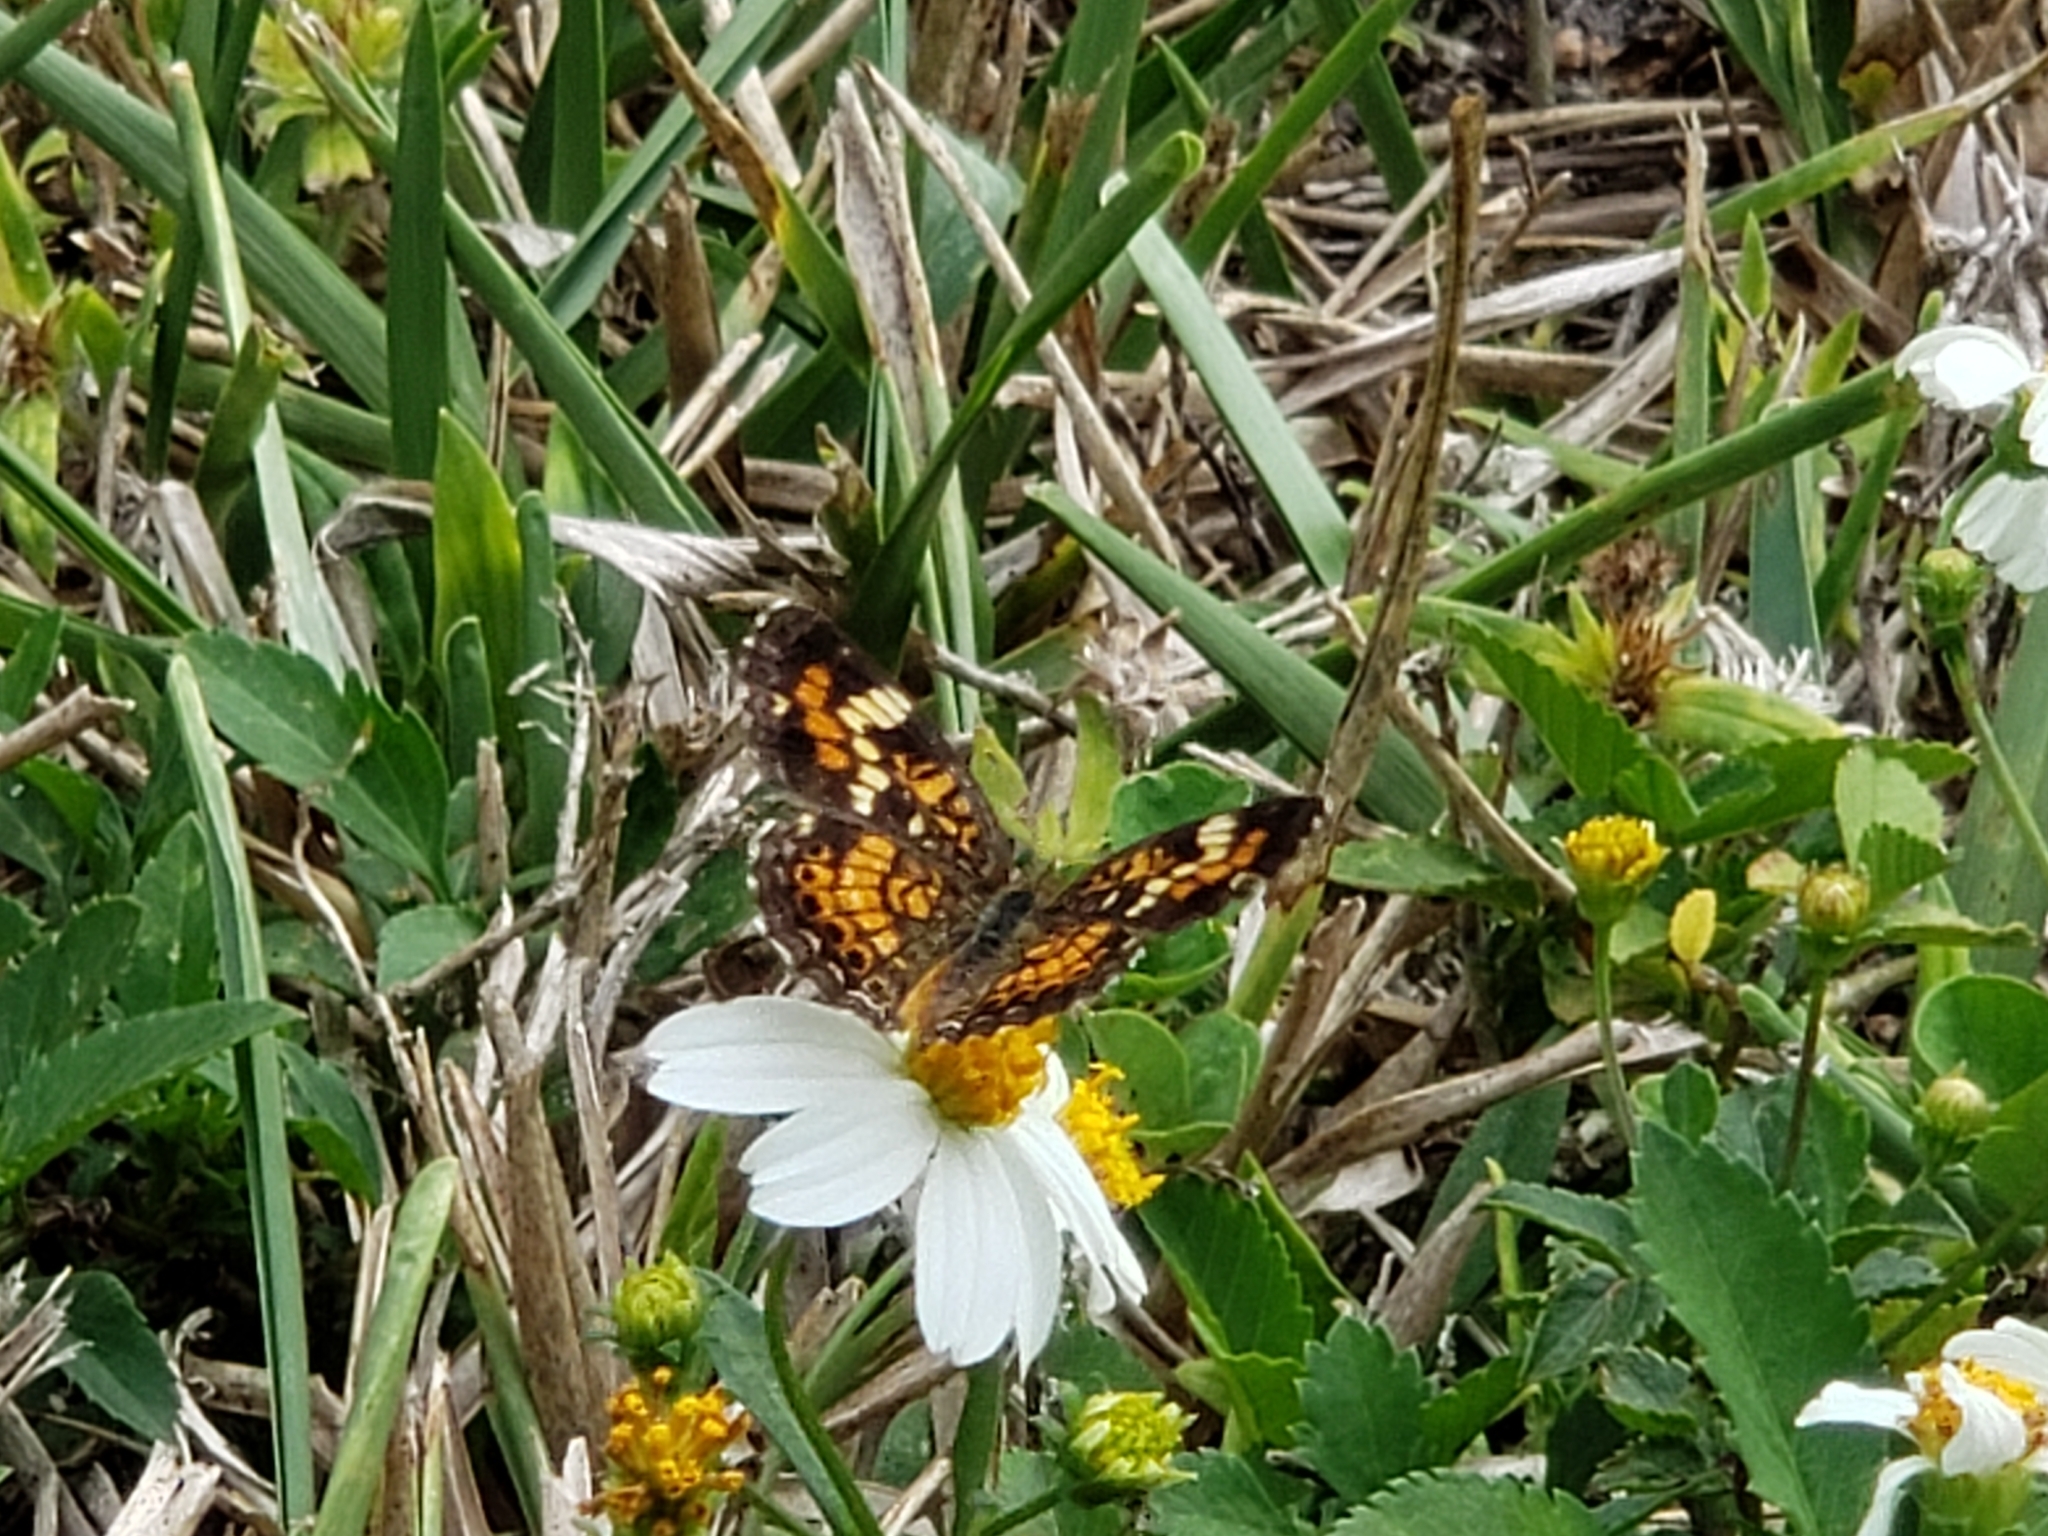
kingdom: Animalia
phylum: Arthropoda
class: Insecta
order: Lepidoptera
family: Nymphalidae
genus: Phyciodes
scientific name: Phyciodes phaon
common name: Phaon crescent
